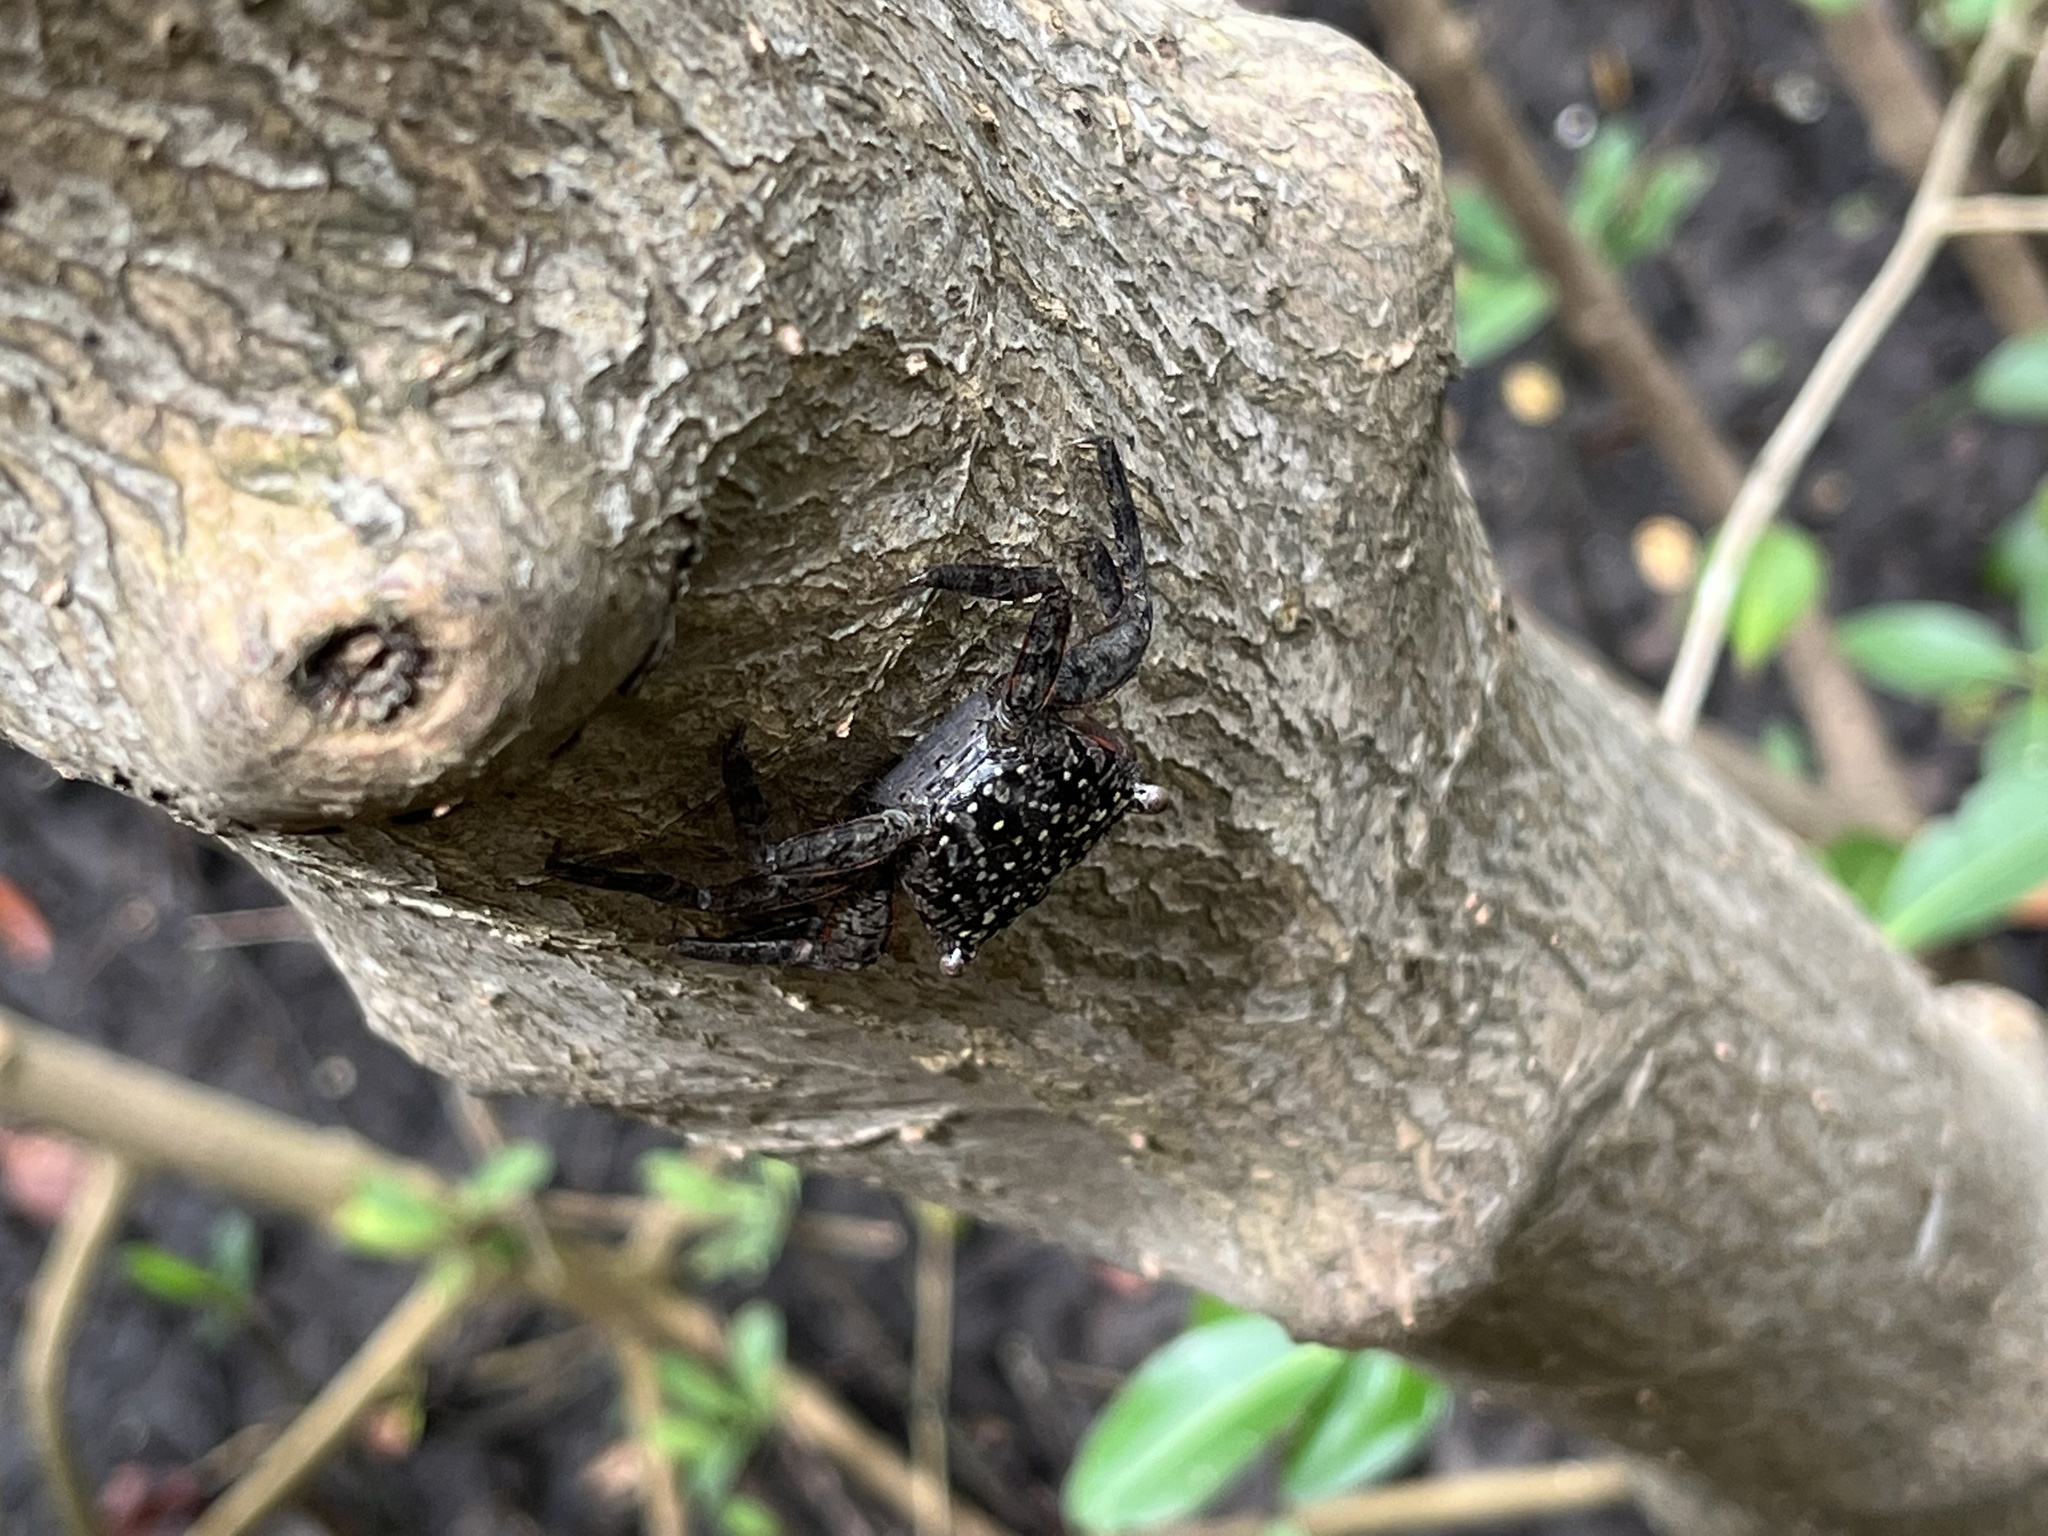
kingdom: Animalia
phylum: Arthropoda
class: Malacostraca
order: Decapoda
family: Sesarmidae
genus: Aratus
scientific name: Aratus pisonii
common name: Mangrove crab
